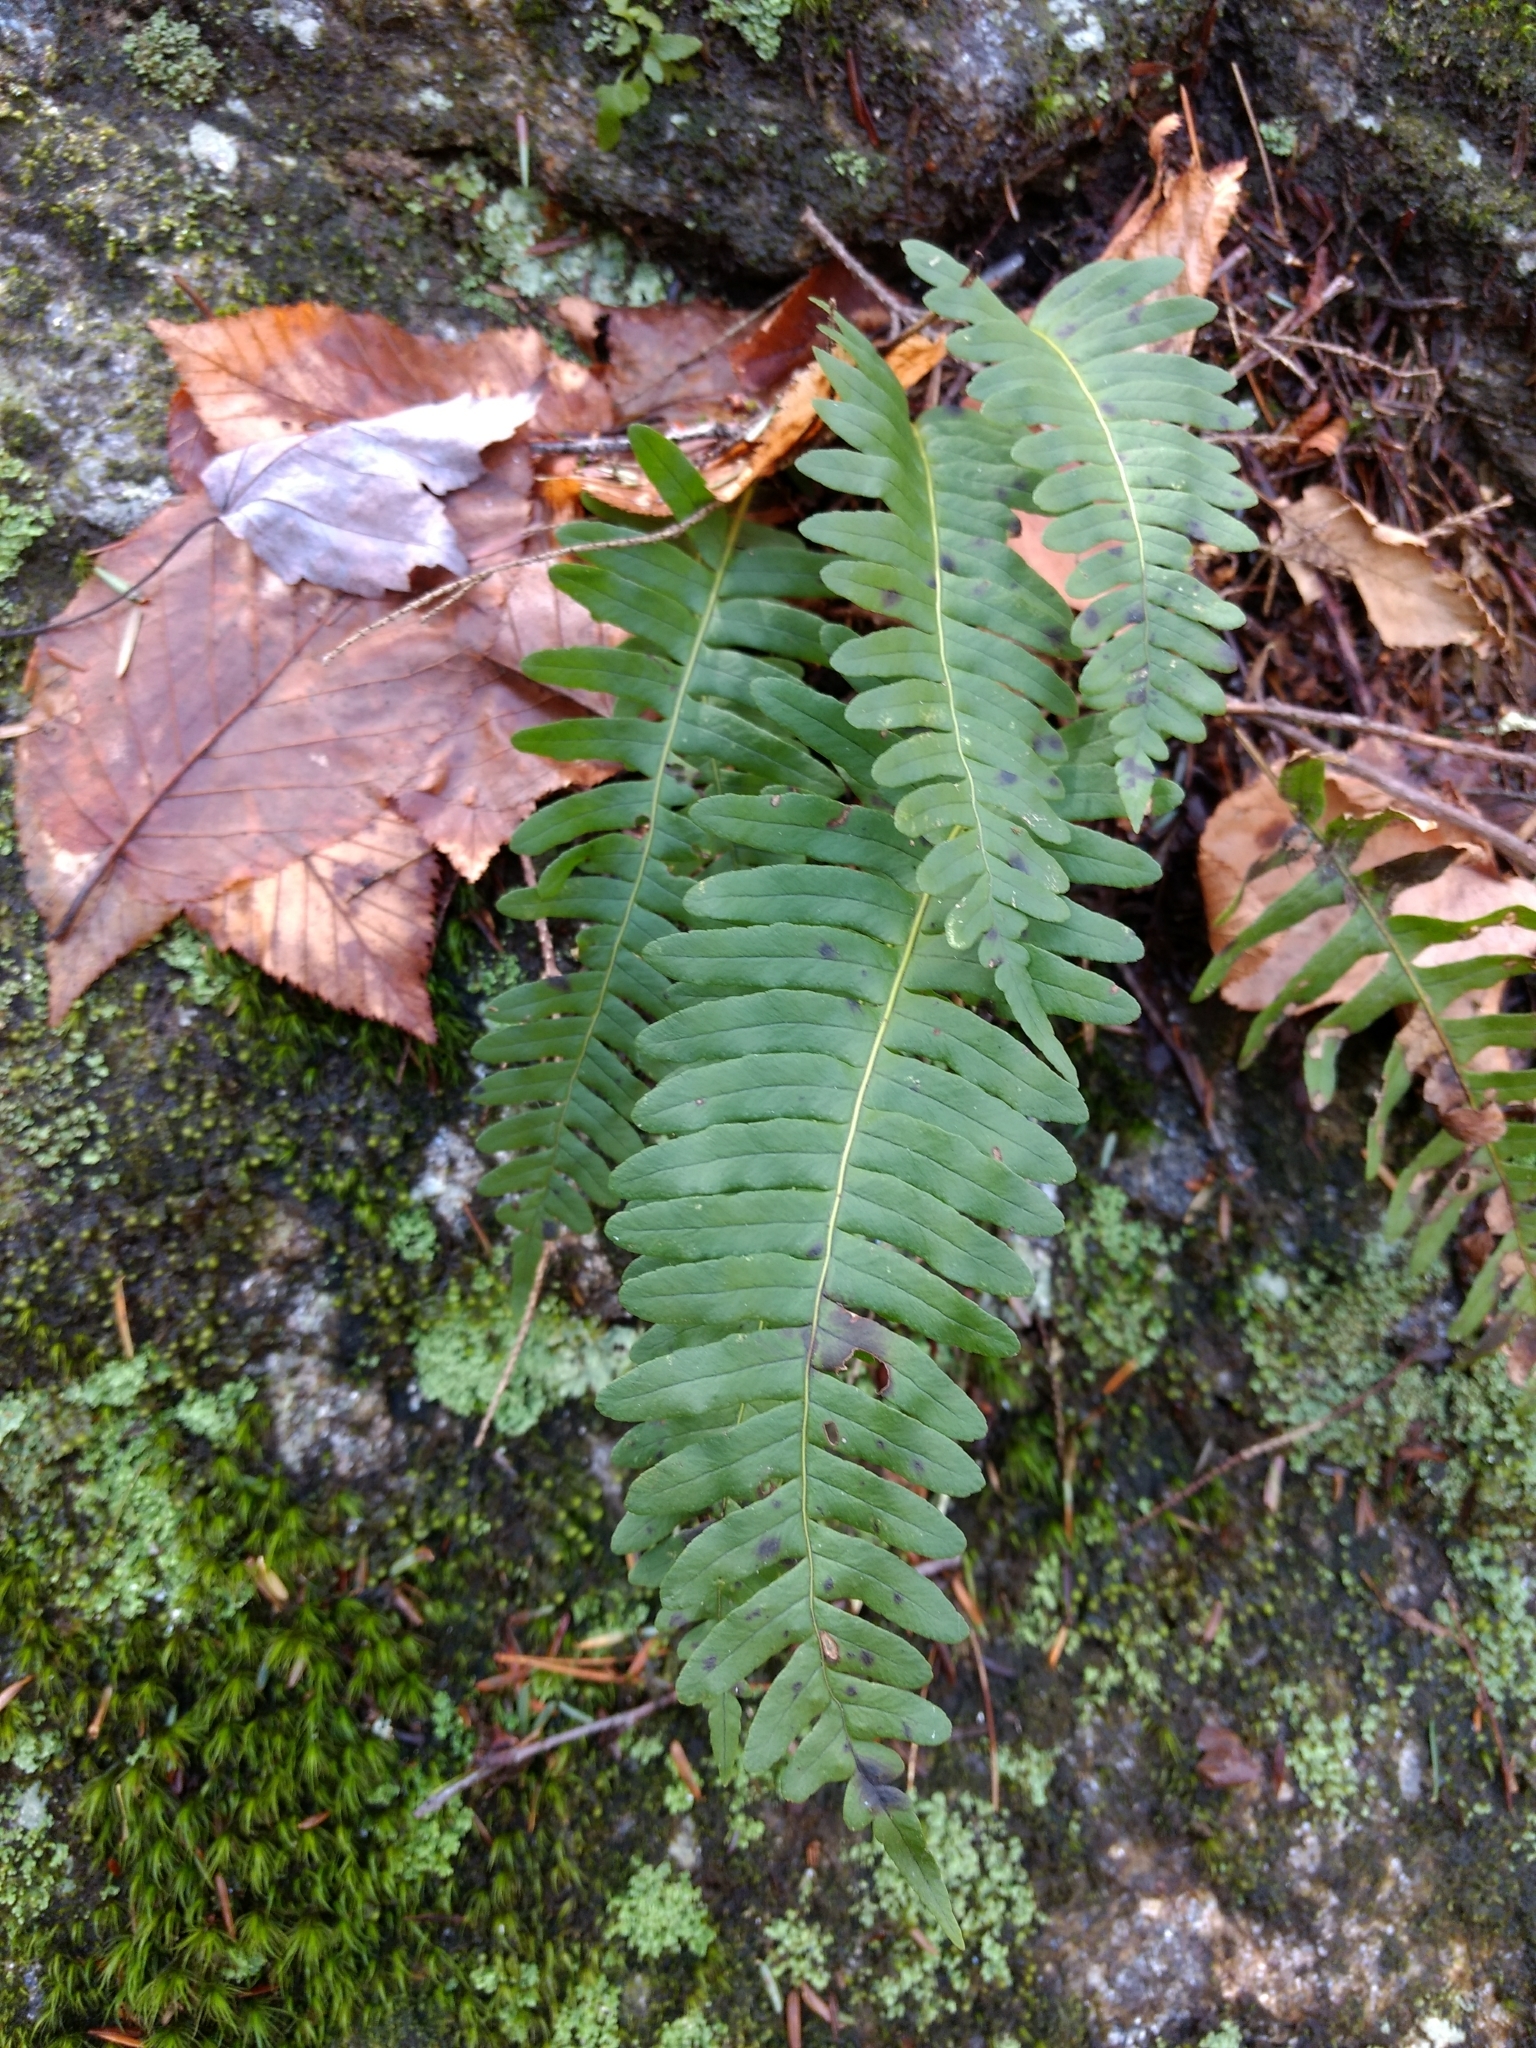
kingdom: Plantae
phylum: Tracheophyta
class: Polypodiopsida
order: Polypodiales
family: Polypodiaceae
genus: Polypodium
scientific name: Polypodium virginianum
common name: American wall fern
